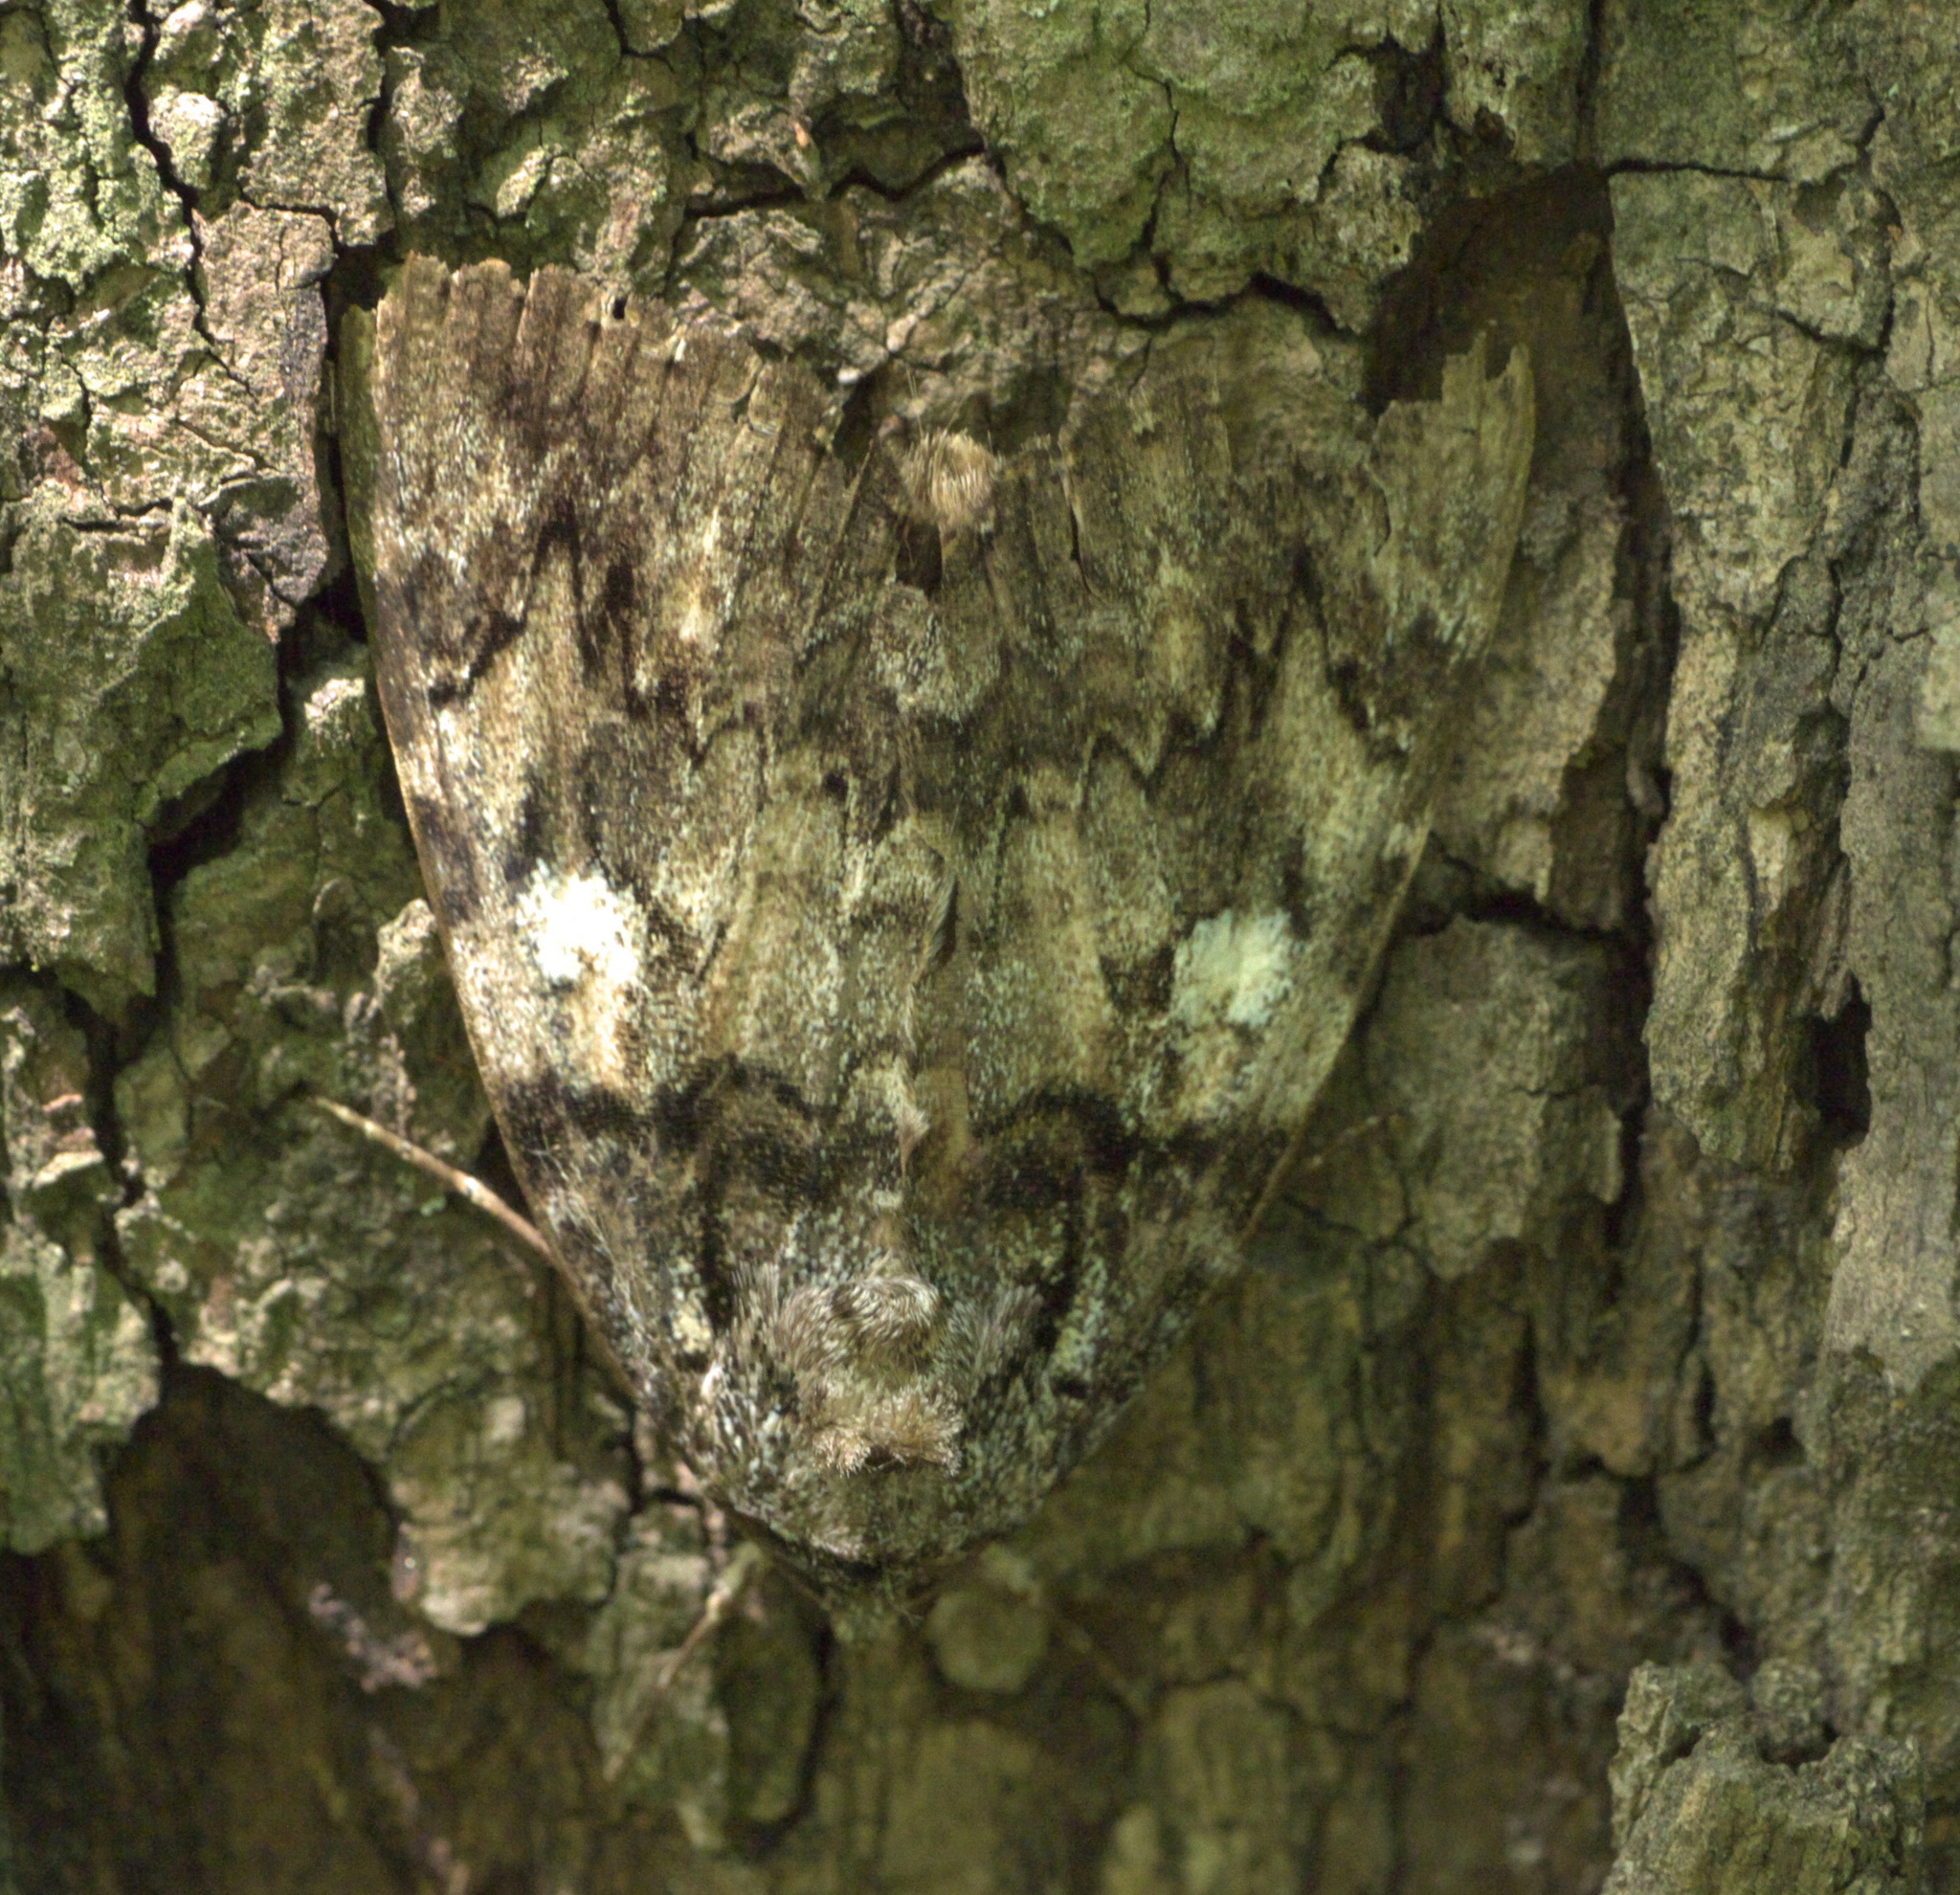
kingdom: Animalia
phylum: Arthropoda
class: Insecta
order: Lepidoptera
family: Erebidae
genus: Catocala
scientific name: Catocala ilia
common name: Ilia underwing
